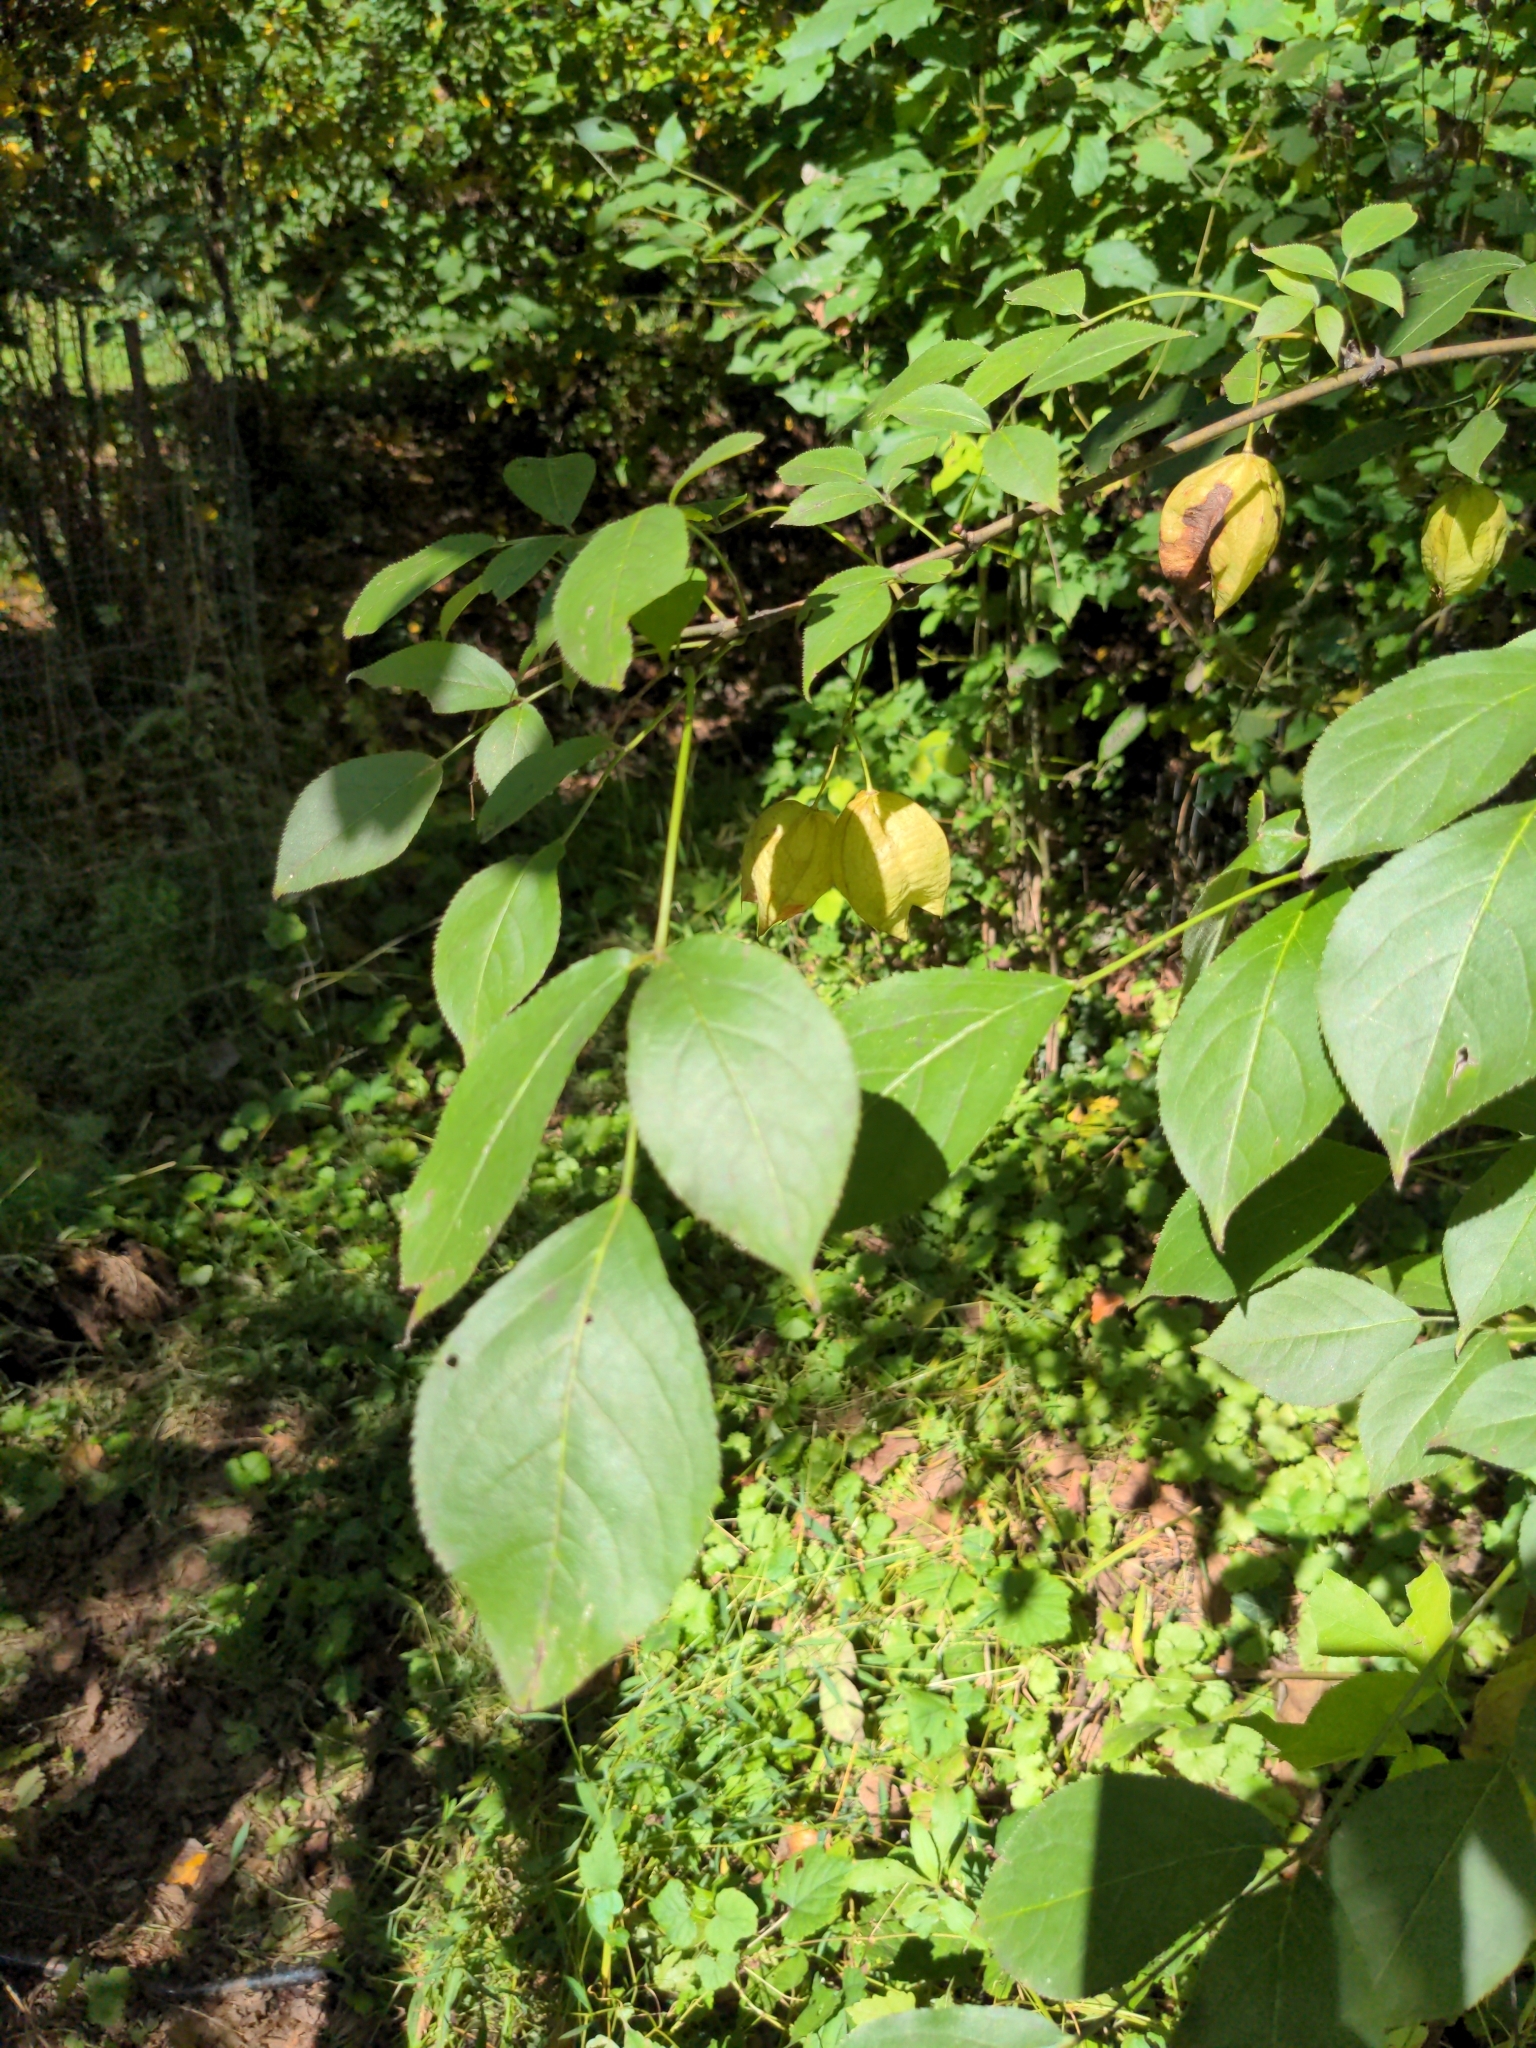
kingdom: Plantae
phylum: Tracheophyta
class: Magnoliopsida
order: Crossosomatales
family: Staphyleaceae
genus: Staphylea
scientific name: Staphylea trifolia
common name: American bladdernut
